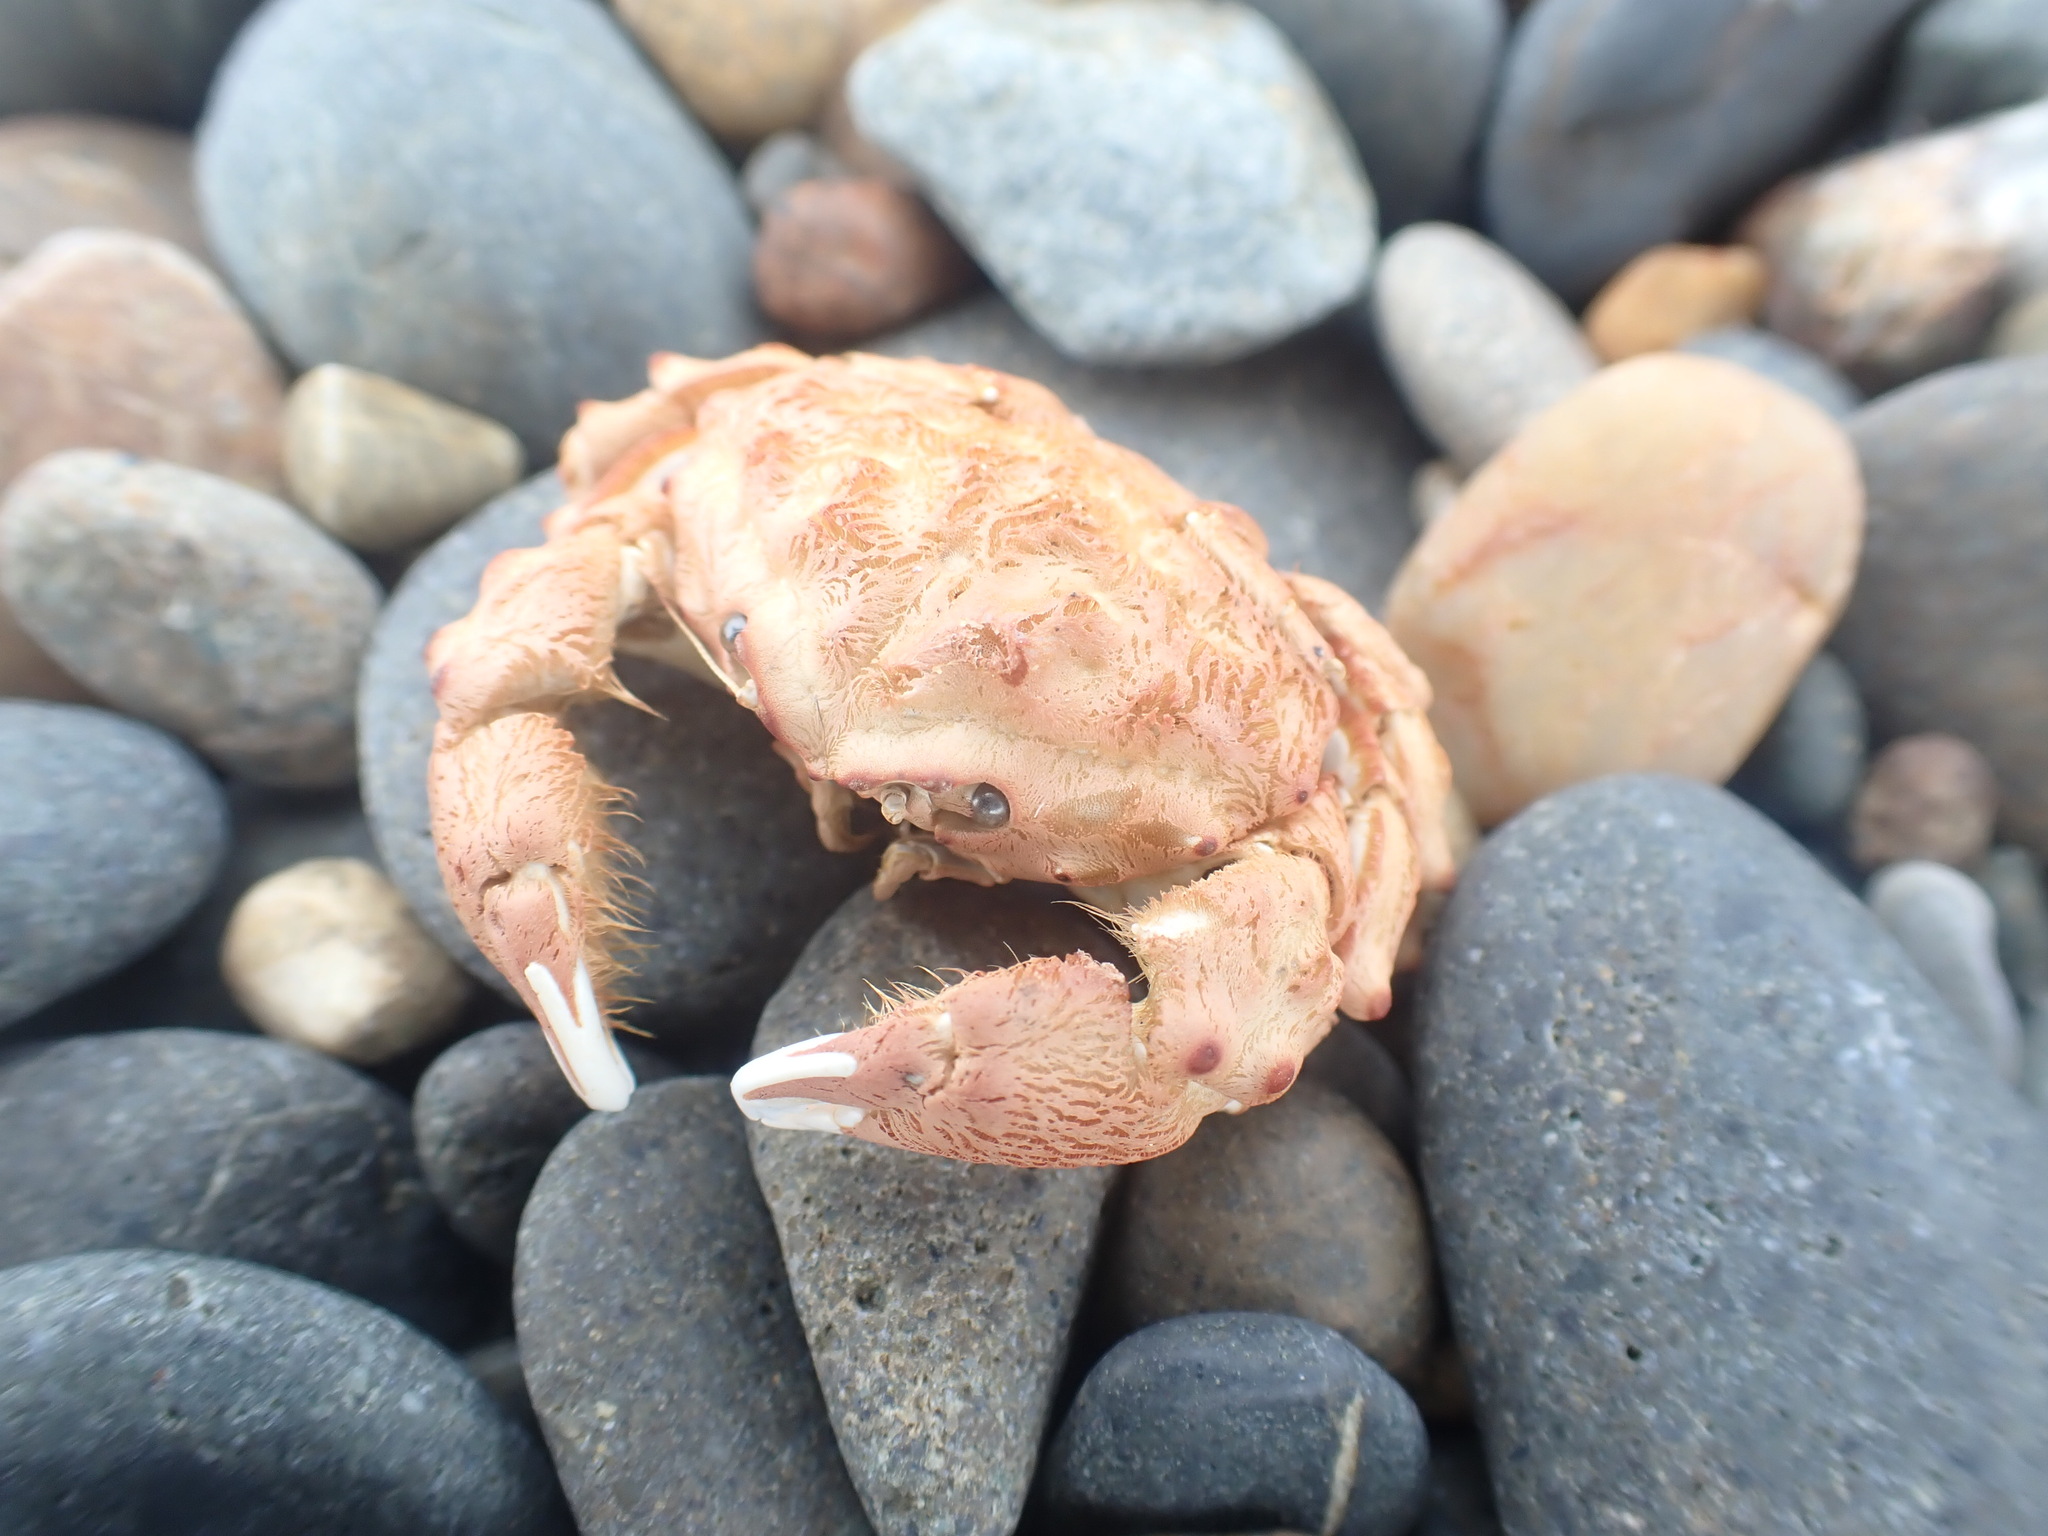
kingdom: Animalia
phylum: Arthropoda
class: Malacostraca
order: Decapoda
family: Dromiidae
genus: Metadromia
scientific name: Metadromia wilsoni
